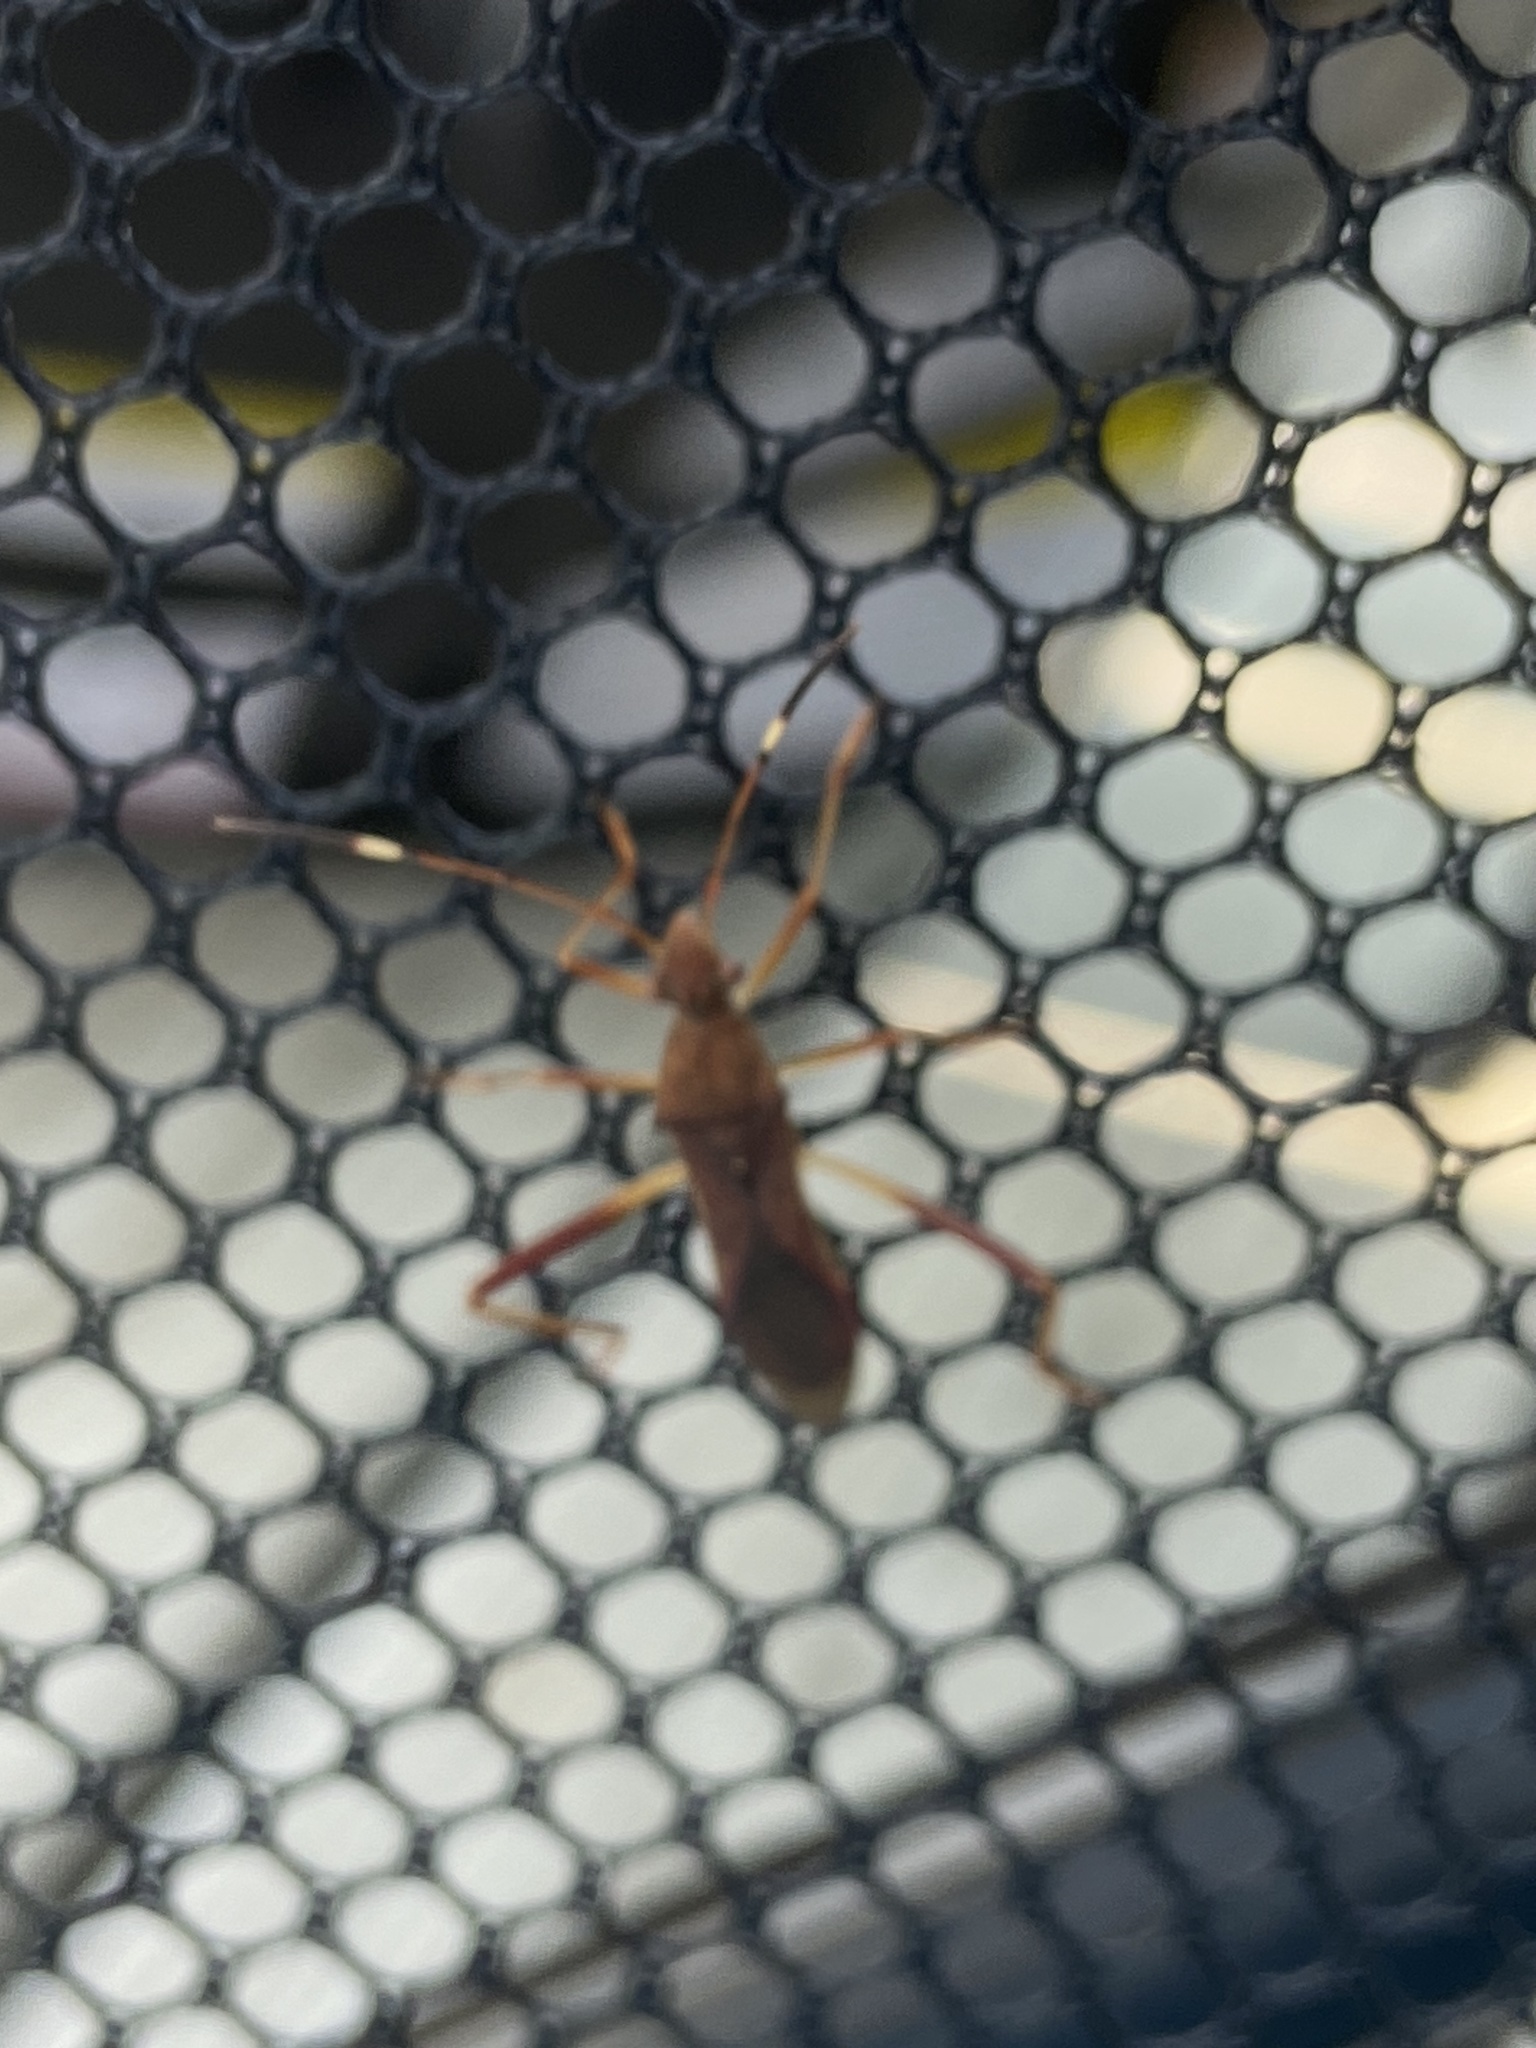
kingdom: Animalia
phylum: Arthropoda
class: Insecta
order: Hemiptera
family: Alydidae
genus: Megalotomus
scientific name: Megalotomus quinquespinosus
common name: Lupine bug
